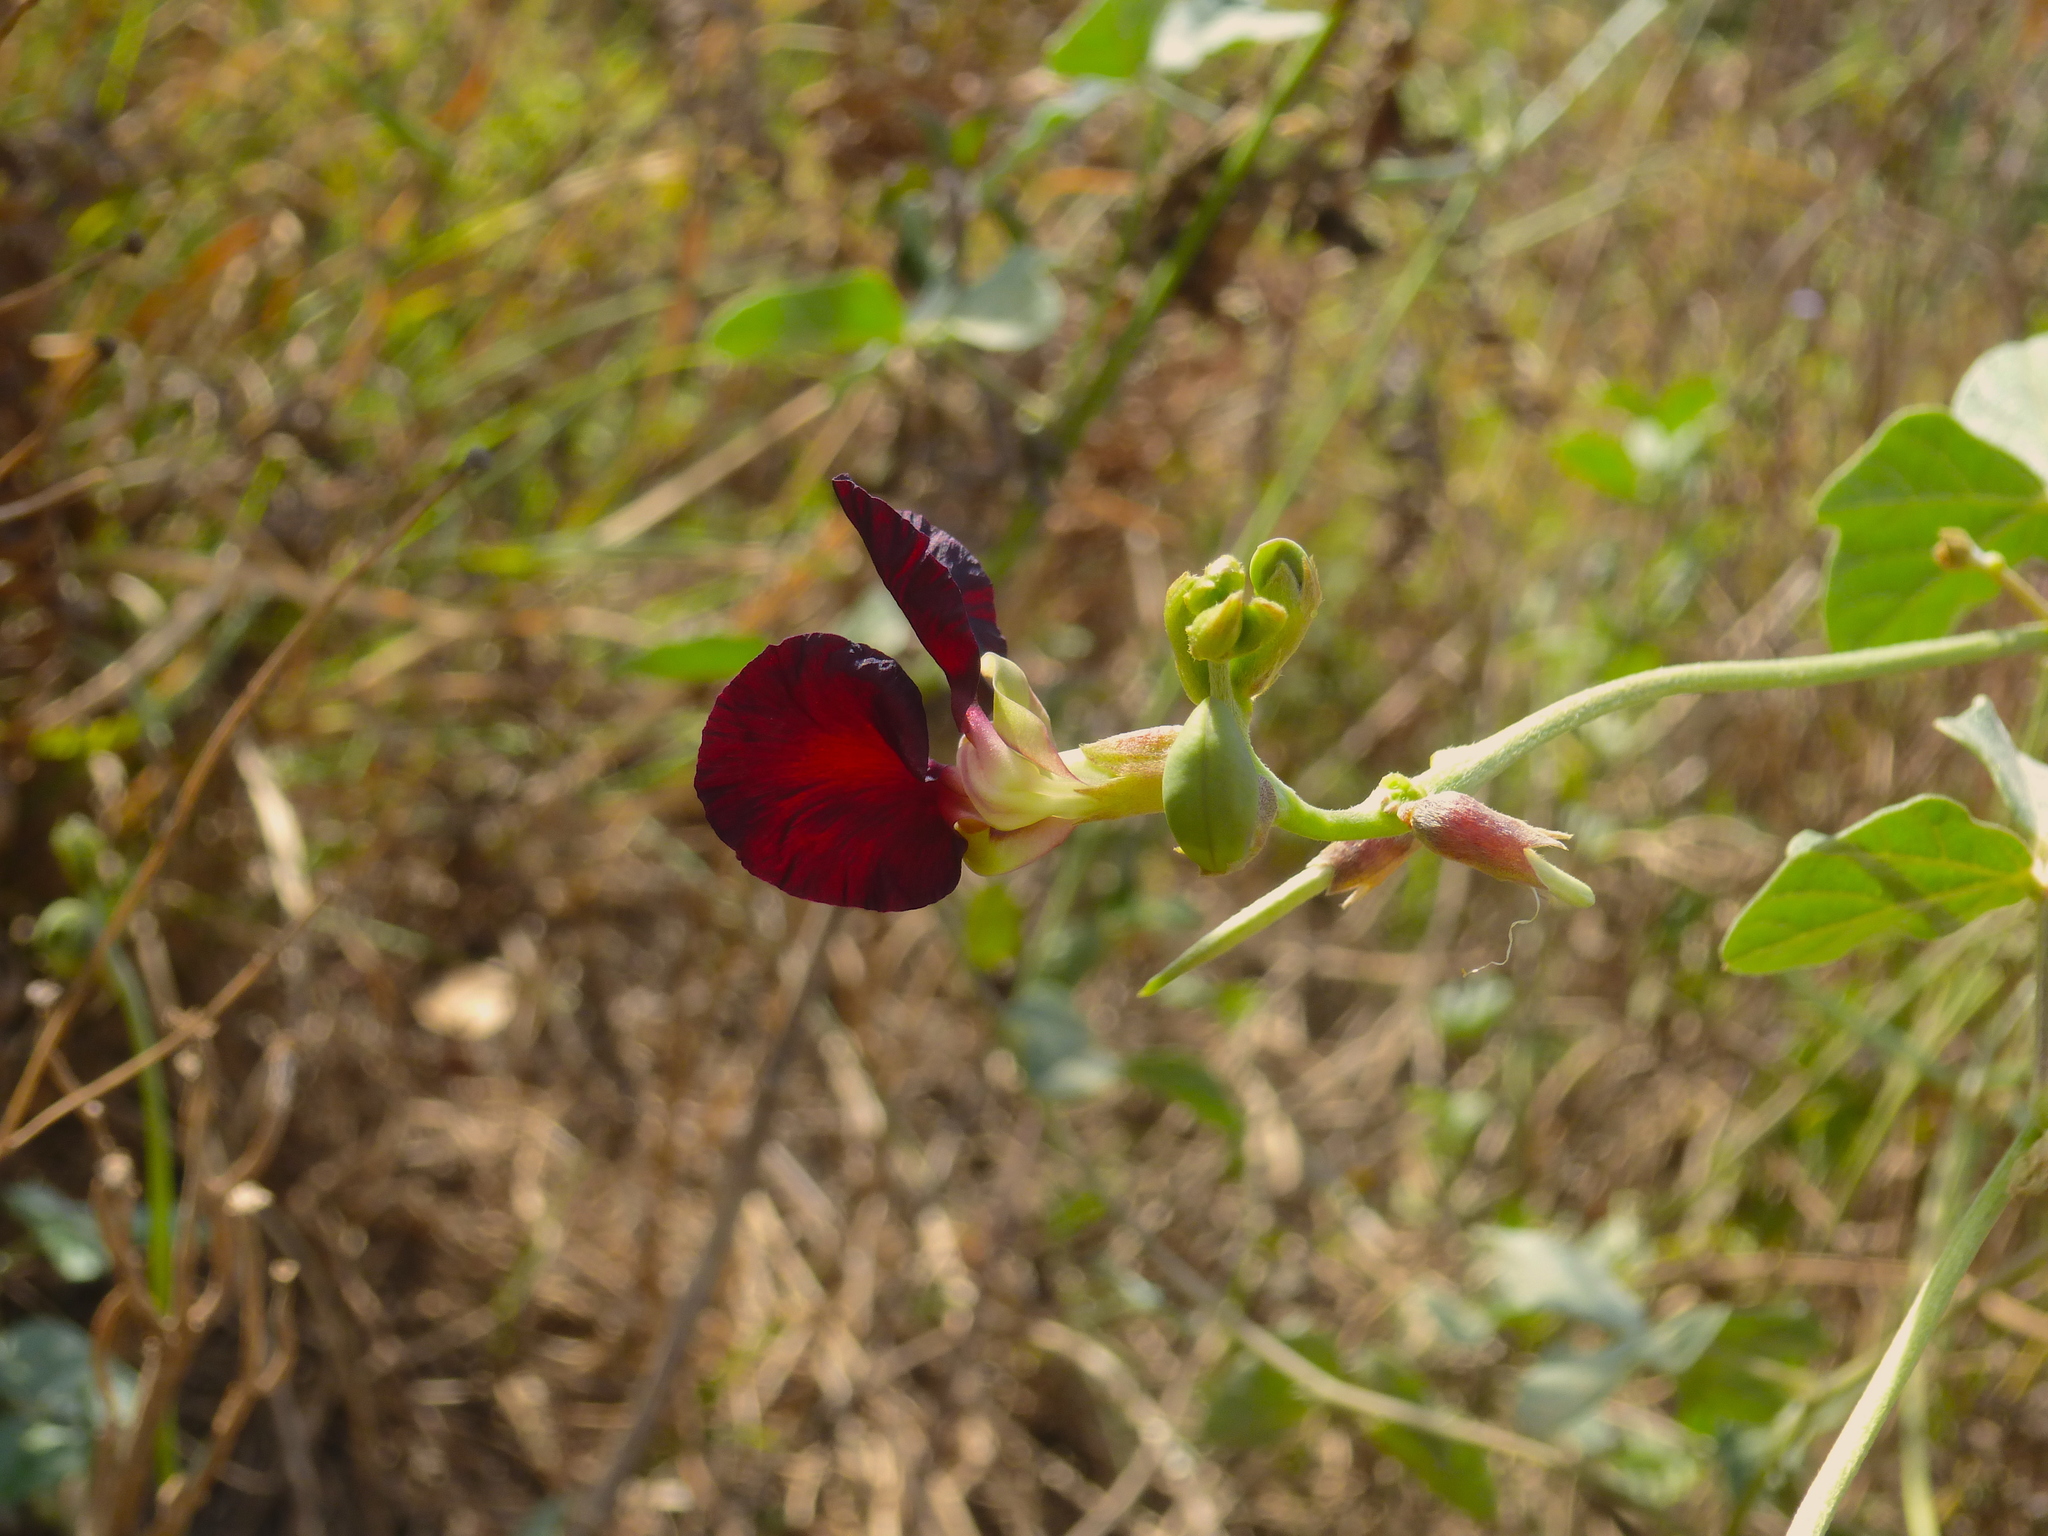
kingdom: Plantae
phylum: Tracheophyta
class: Magnoliopsida
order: Fabales
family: Fabaceae
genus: Macroptilium
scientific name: Macroptilium atropurpureum
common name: Purple bushbean
